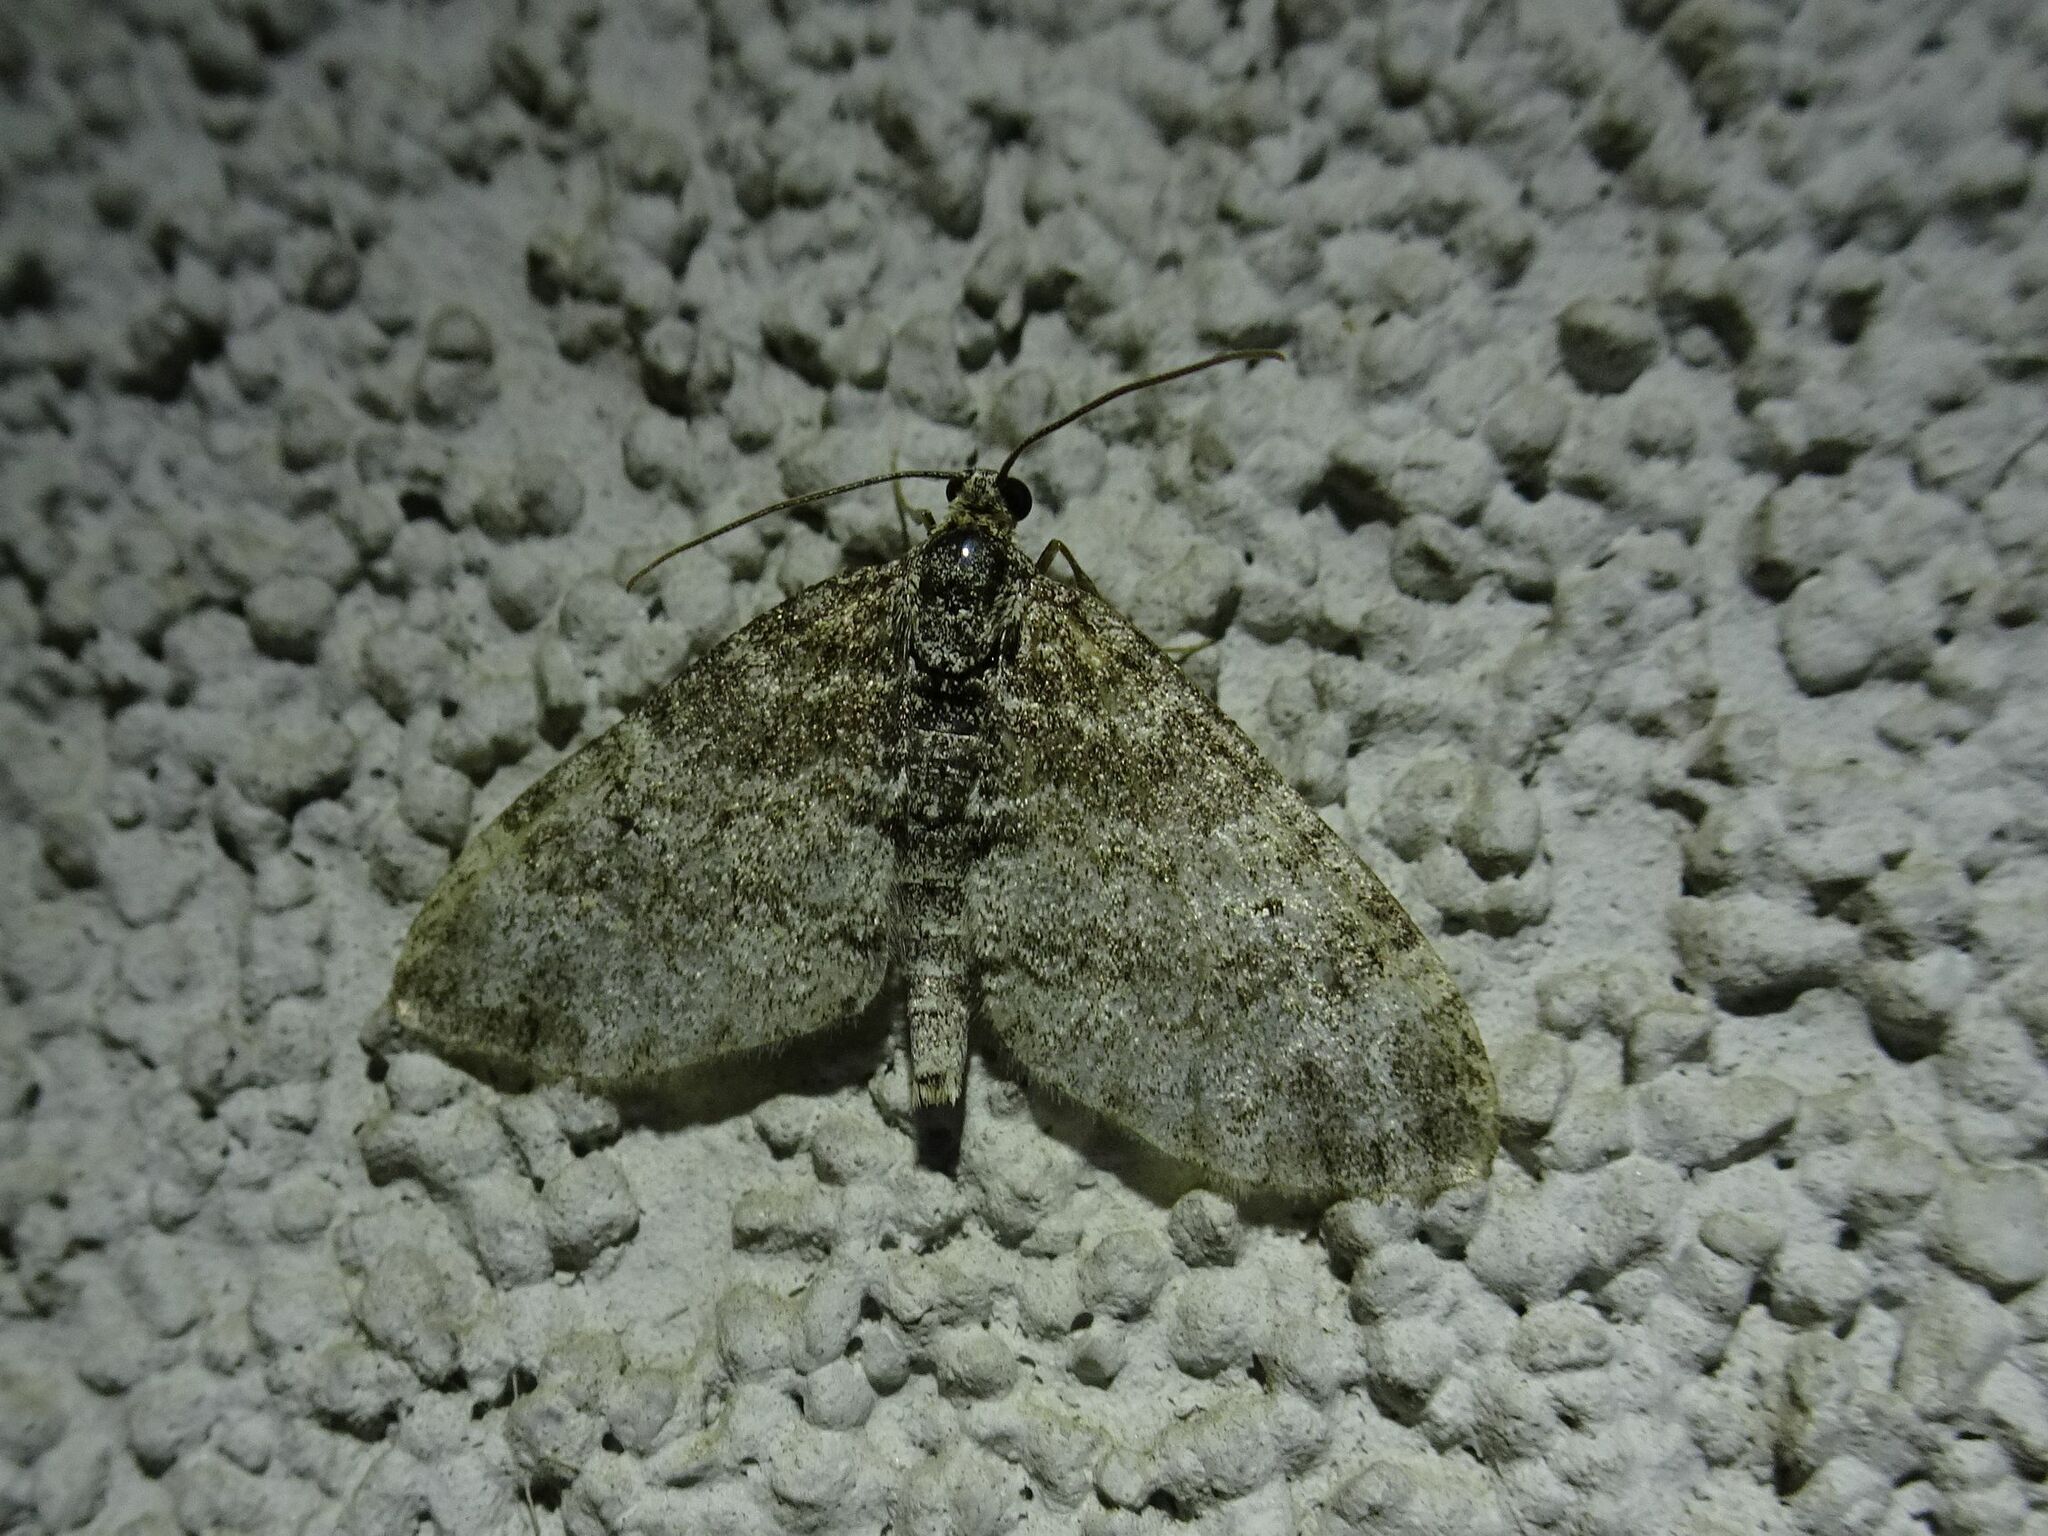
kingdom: Animalia
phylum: Arthropoda
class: Insecta
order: Lepidoptera
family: Geometridae
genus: Lobophora
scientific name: Lobophora halterata
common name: Seraphim
